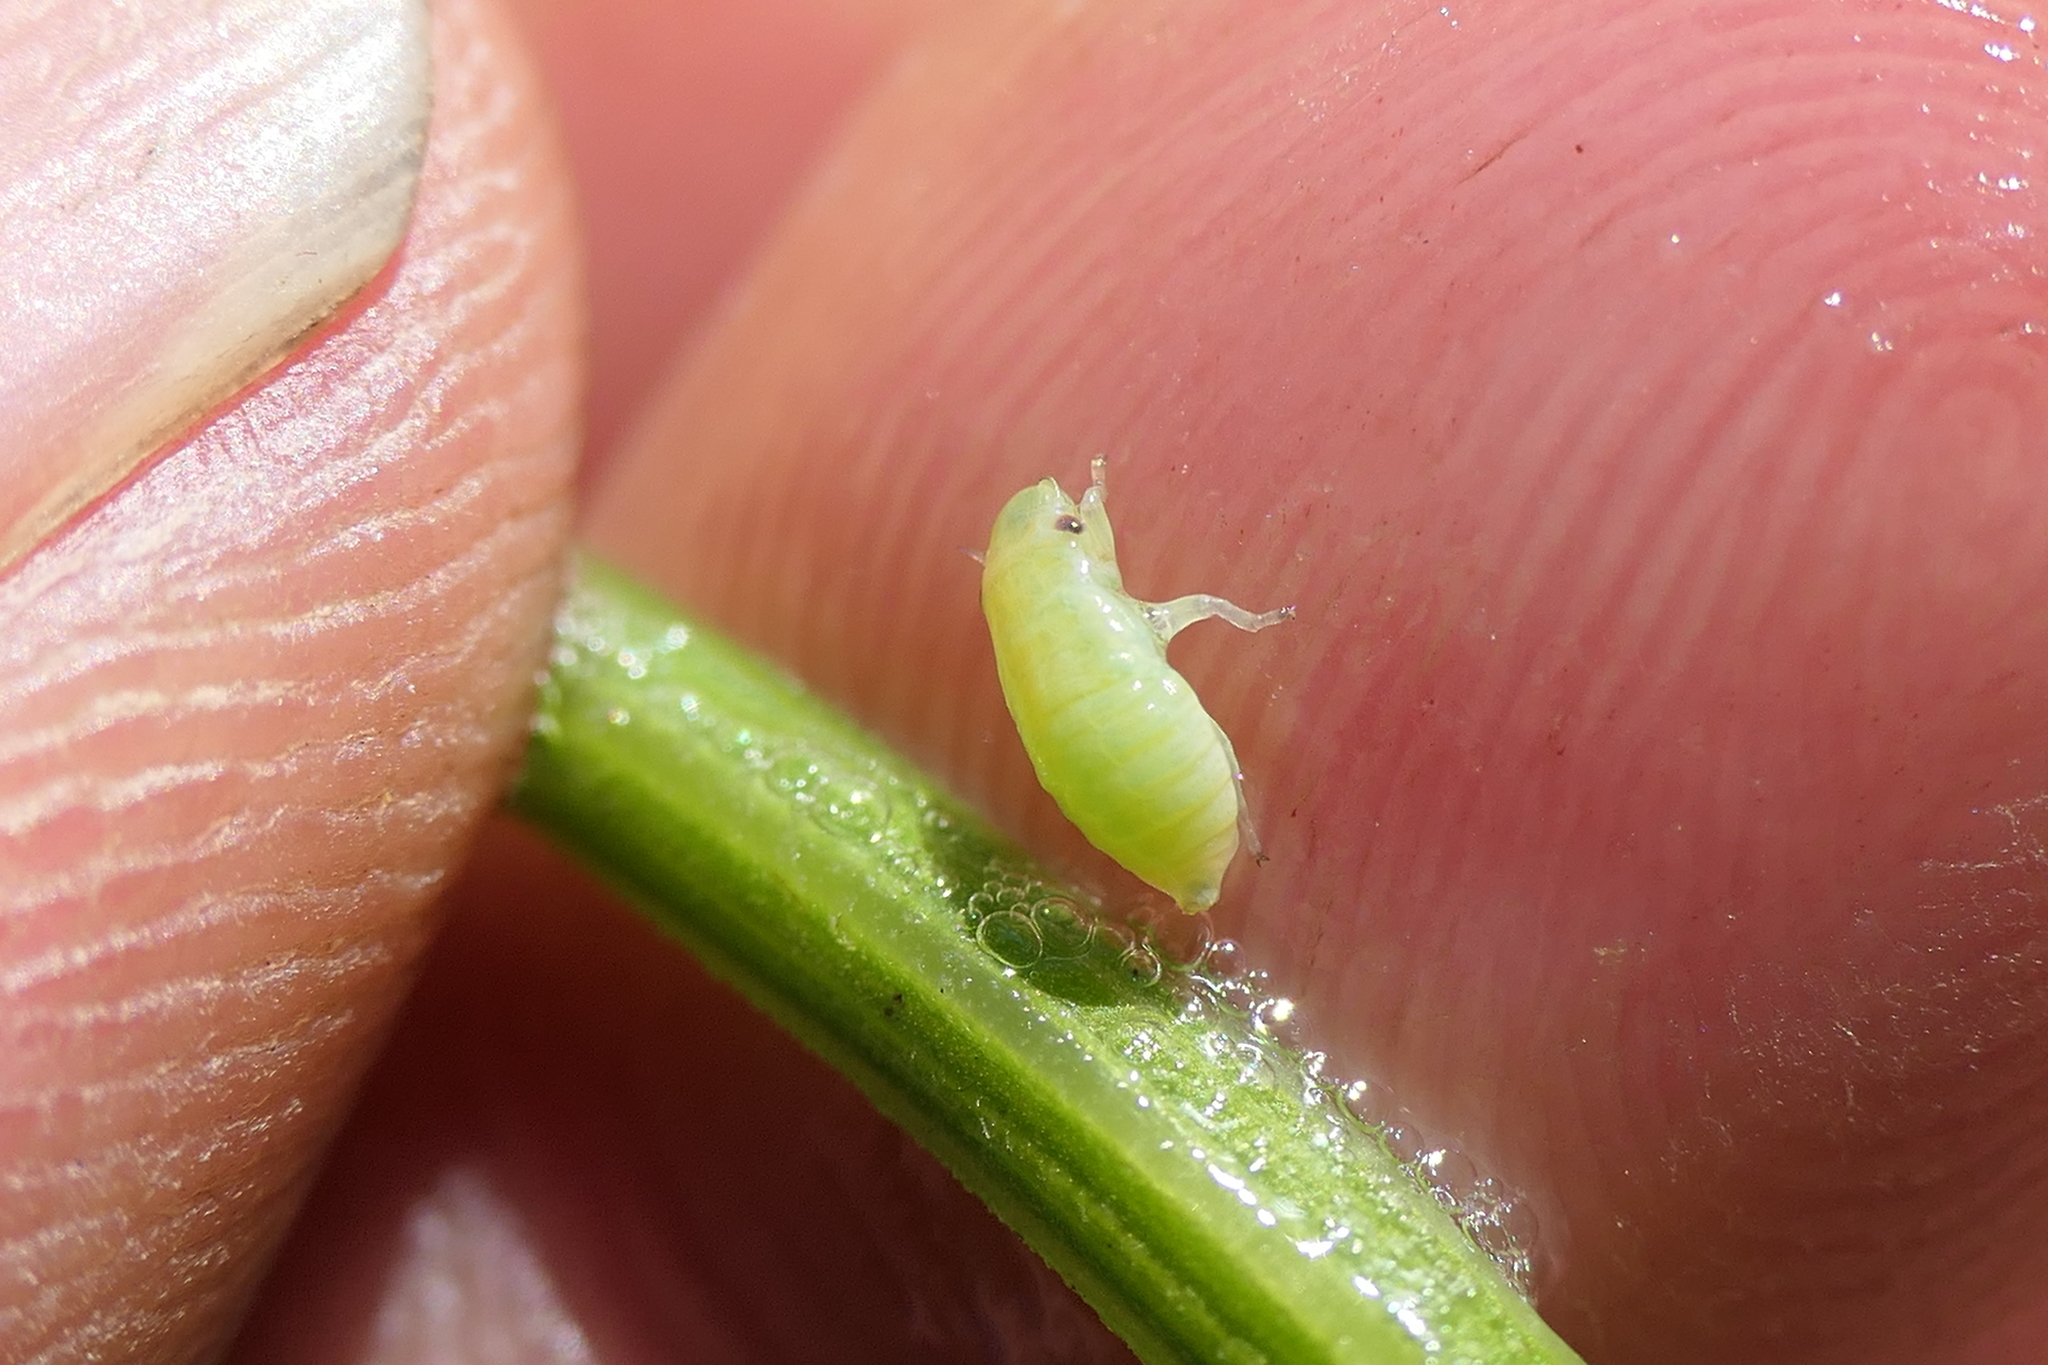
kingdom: Animalia
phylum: Arthropoda
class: Insecta
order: Hemiptera
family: Aphrophoridae
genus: Philaenus
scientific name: Philaenus spumarius
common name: Meadow spittlebug
